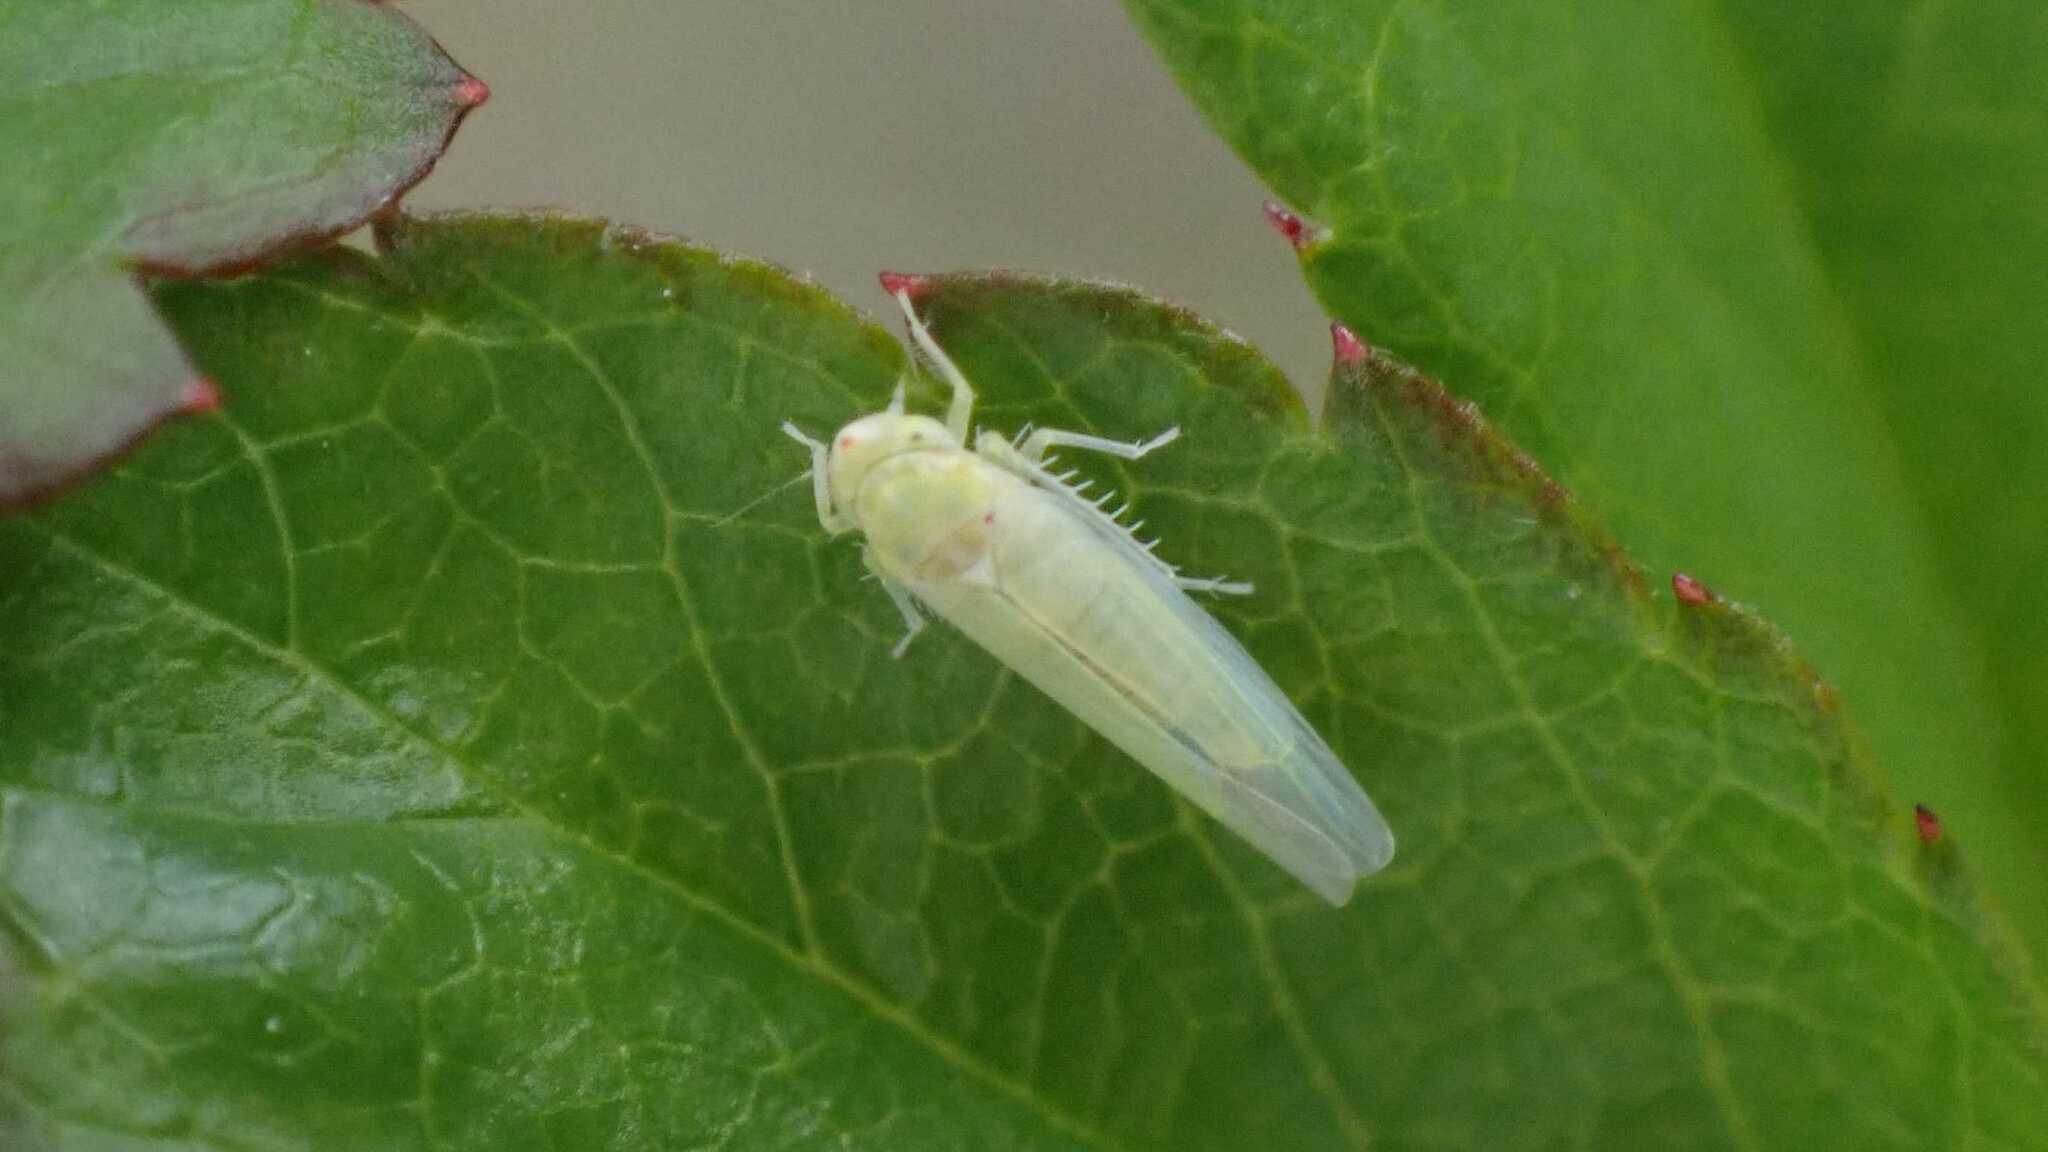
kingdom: Animalia
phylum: Arthropoda
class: Insecta
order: Hemiptera
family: Cicadellidae
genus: Zygina
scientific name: Zygina nivea
